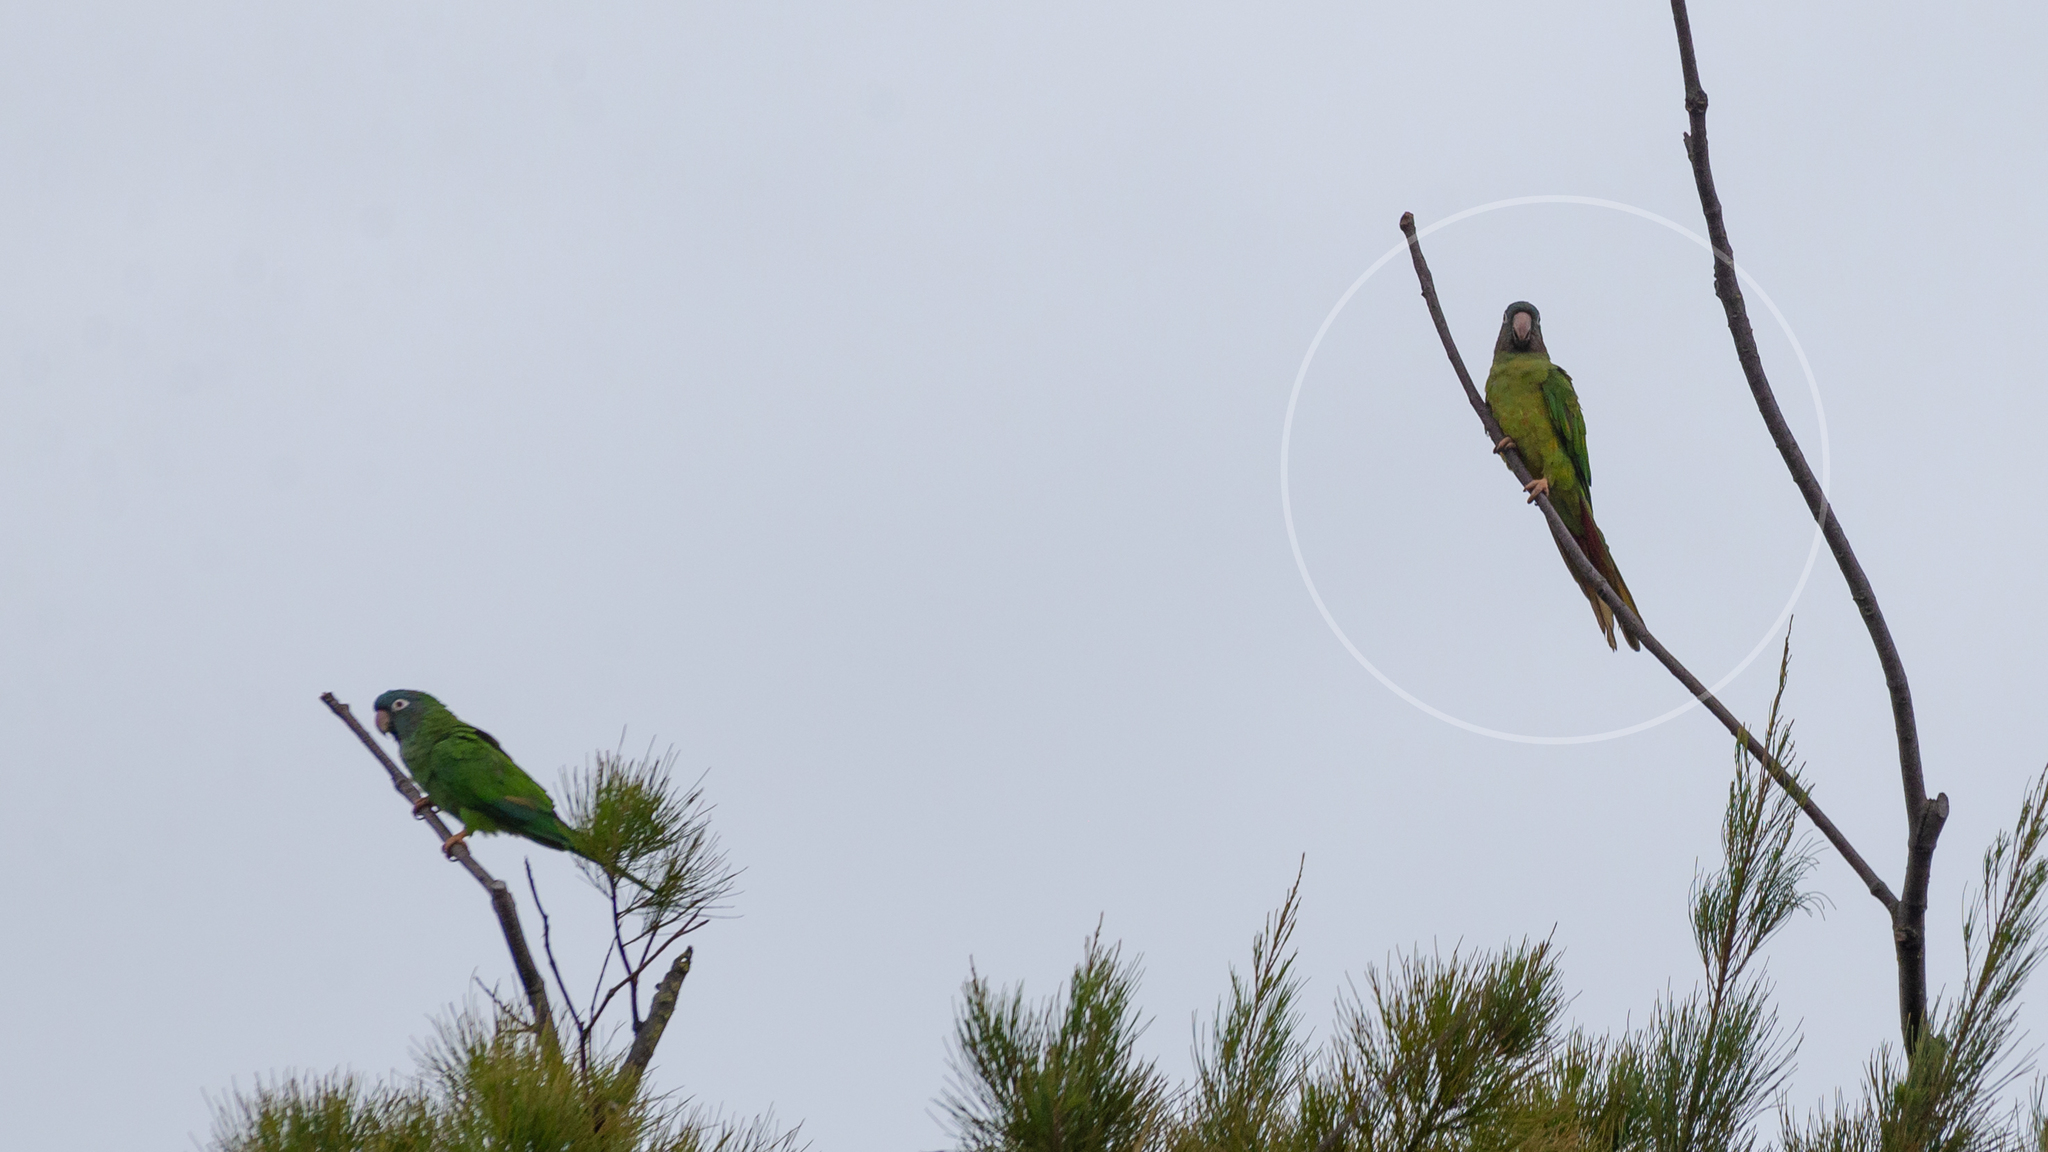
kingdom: Animalia
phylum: Chordata
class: Aves
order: Psittaciformes
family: Psittacidae
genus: Aratinga
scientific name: Aratinga acuticaudata
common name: Blue-crowned parakeet
